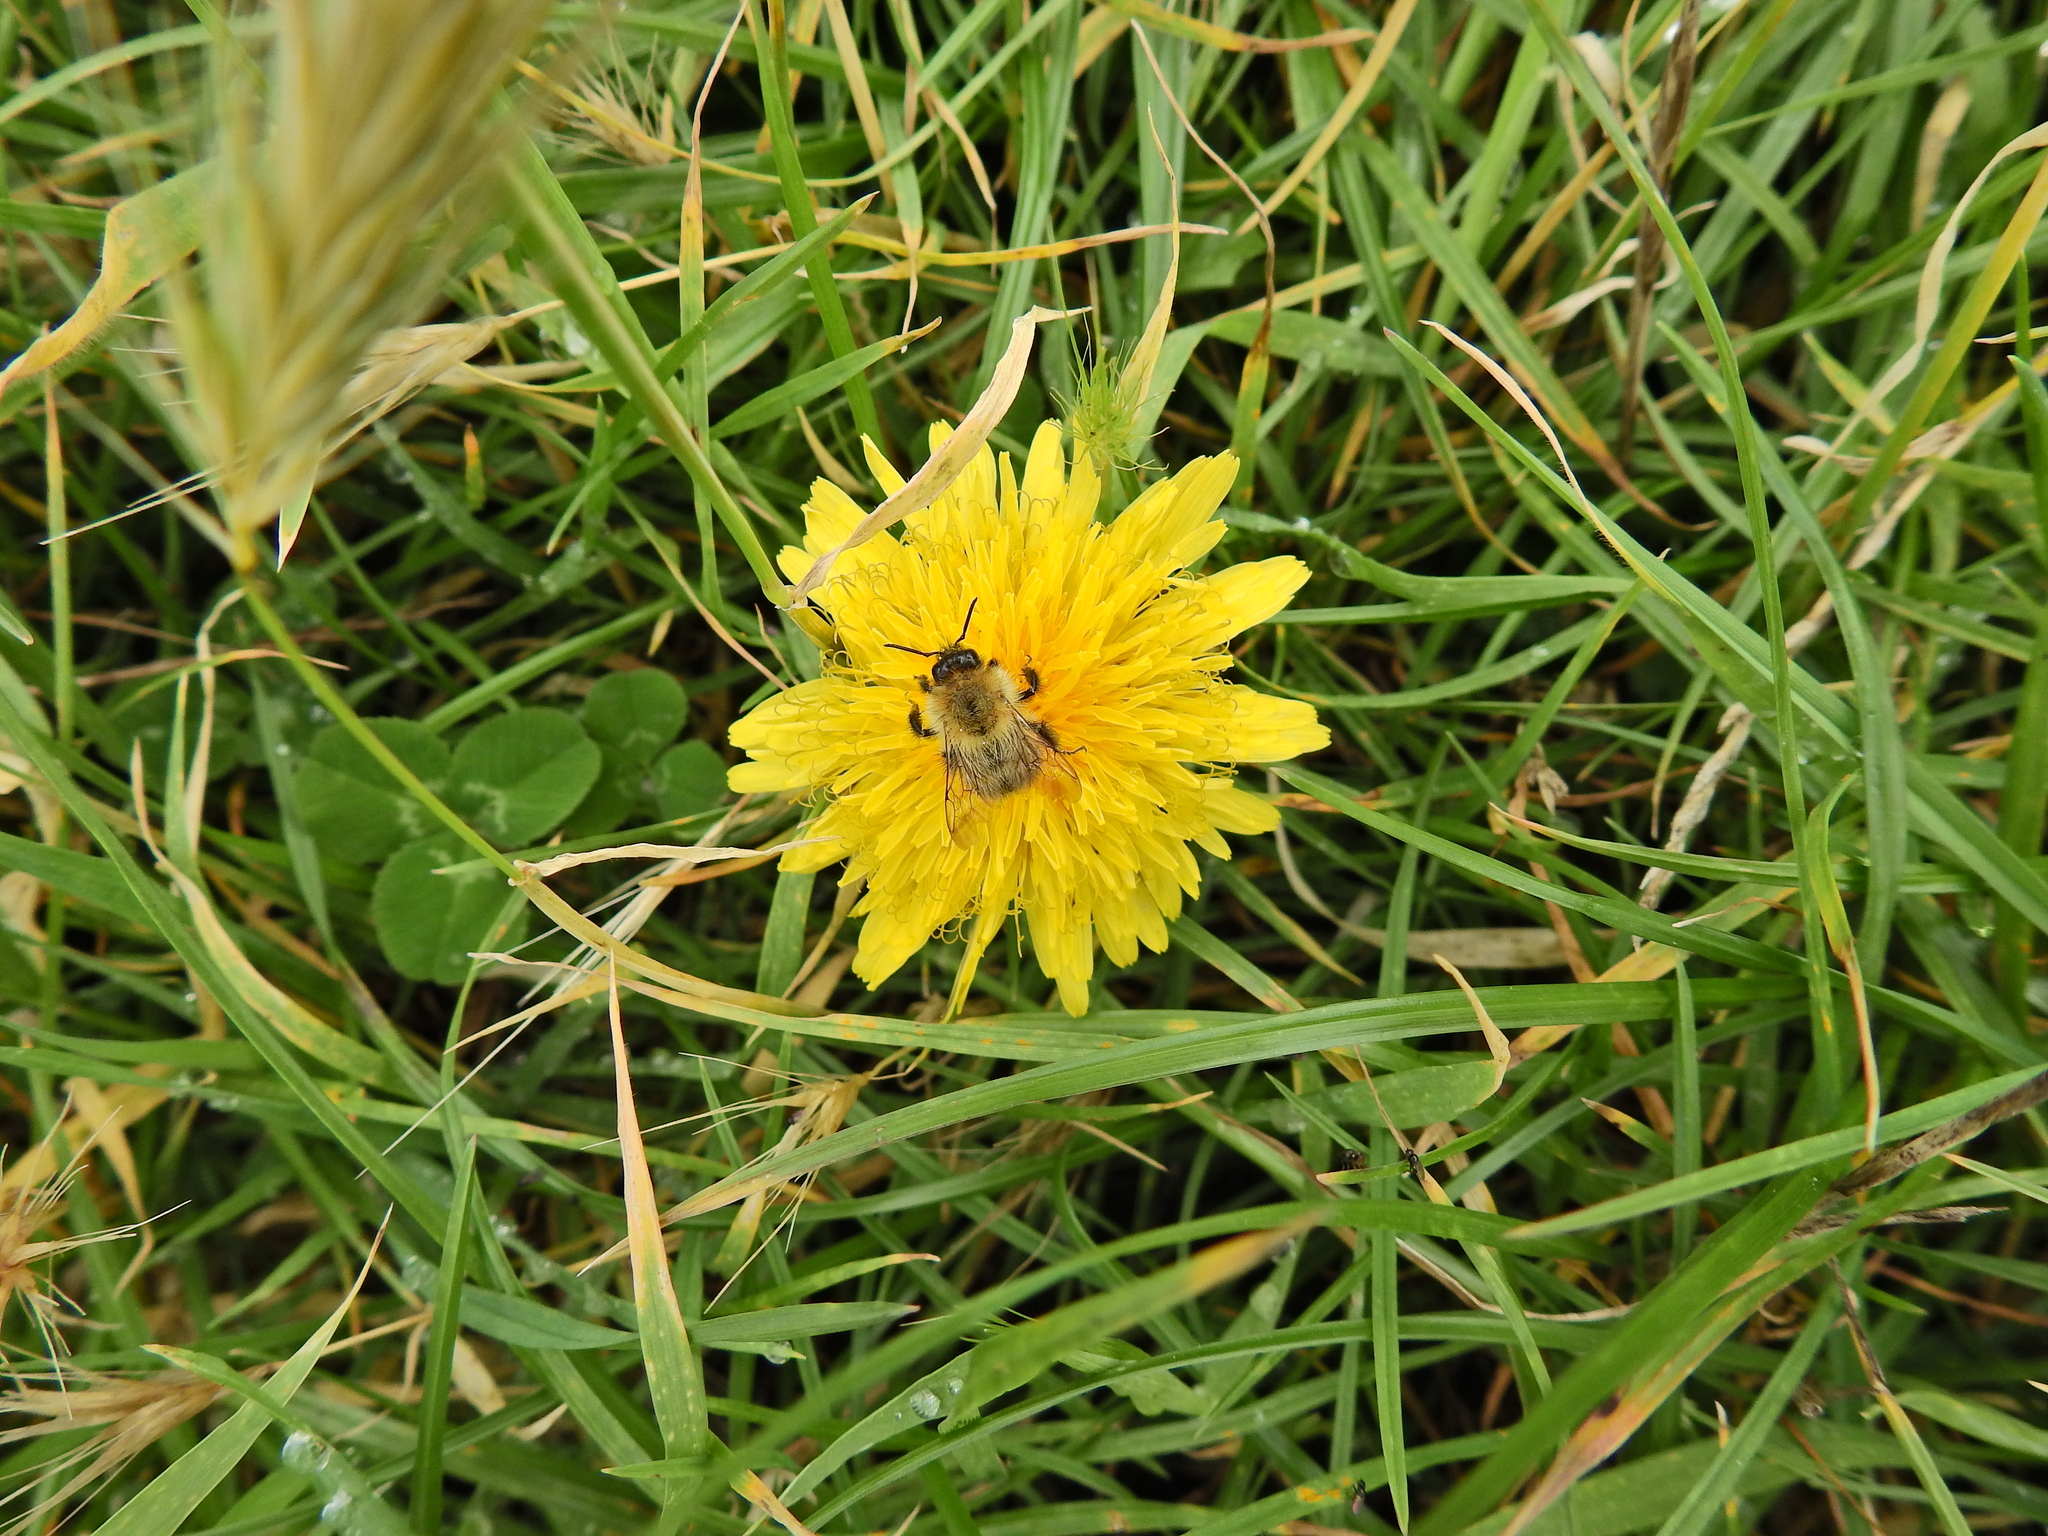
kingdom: Animalia
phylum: Arthropoda
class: Insecta
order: Hymenoptera
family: Apidae
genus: Bombus
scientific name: Bombus pascuorum
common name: Common carder bee
